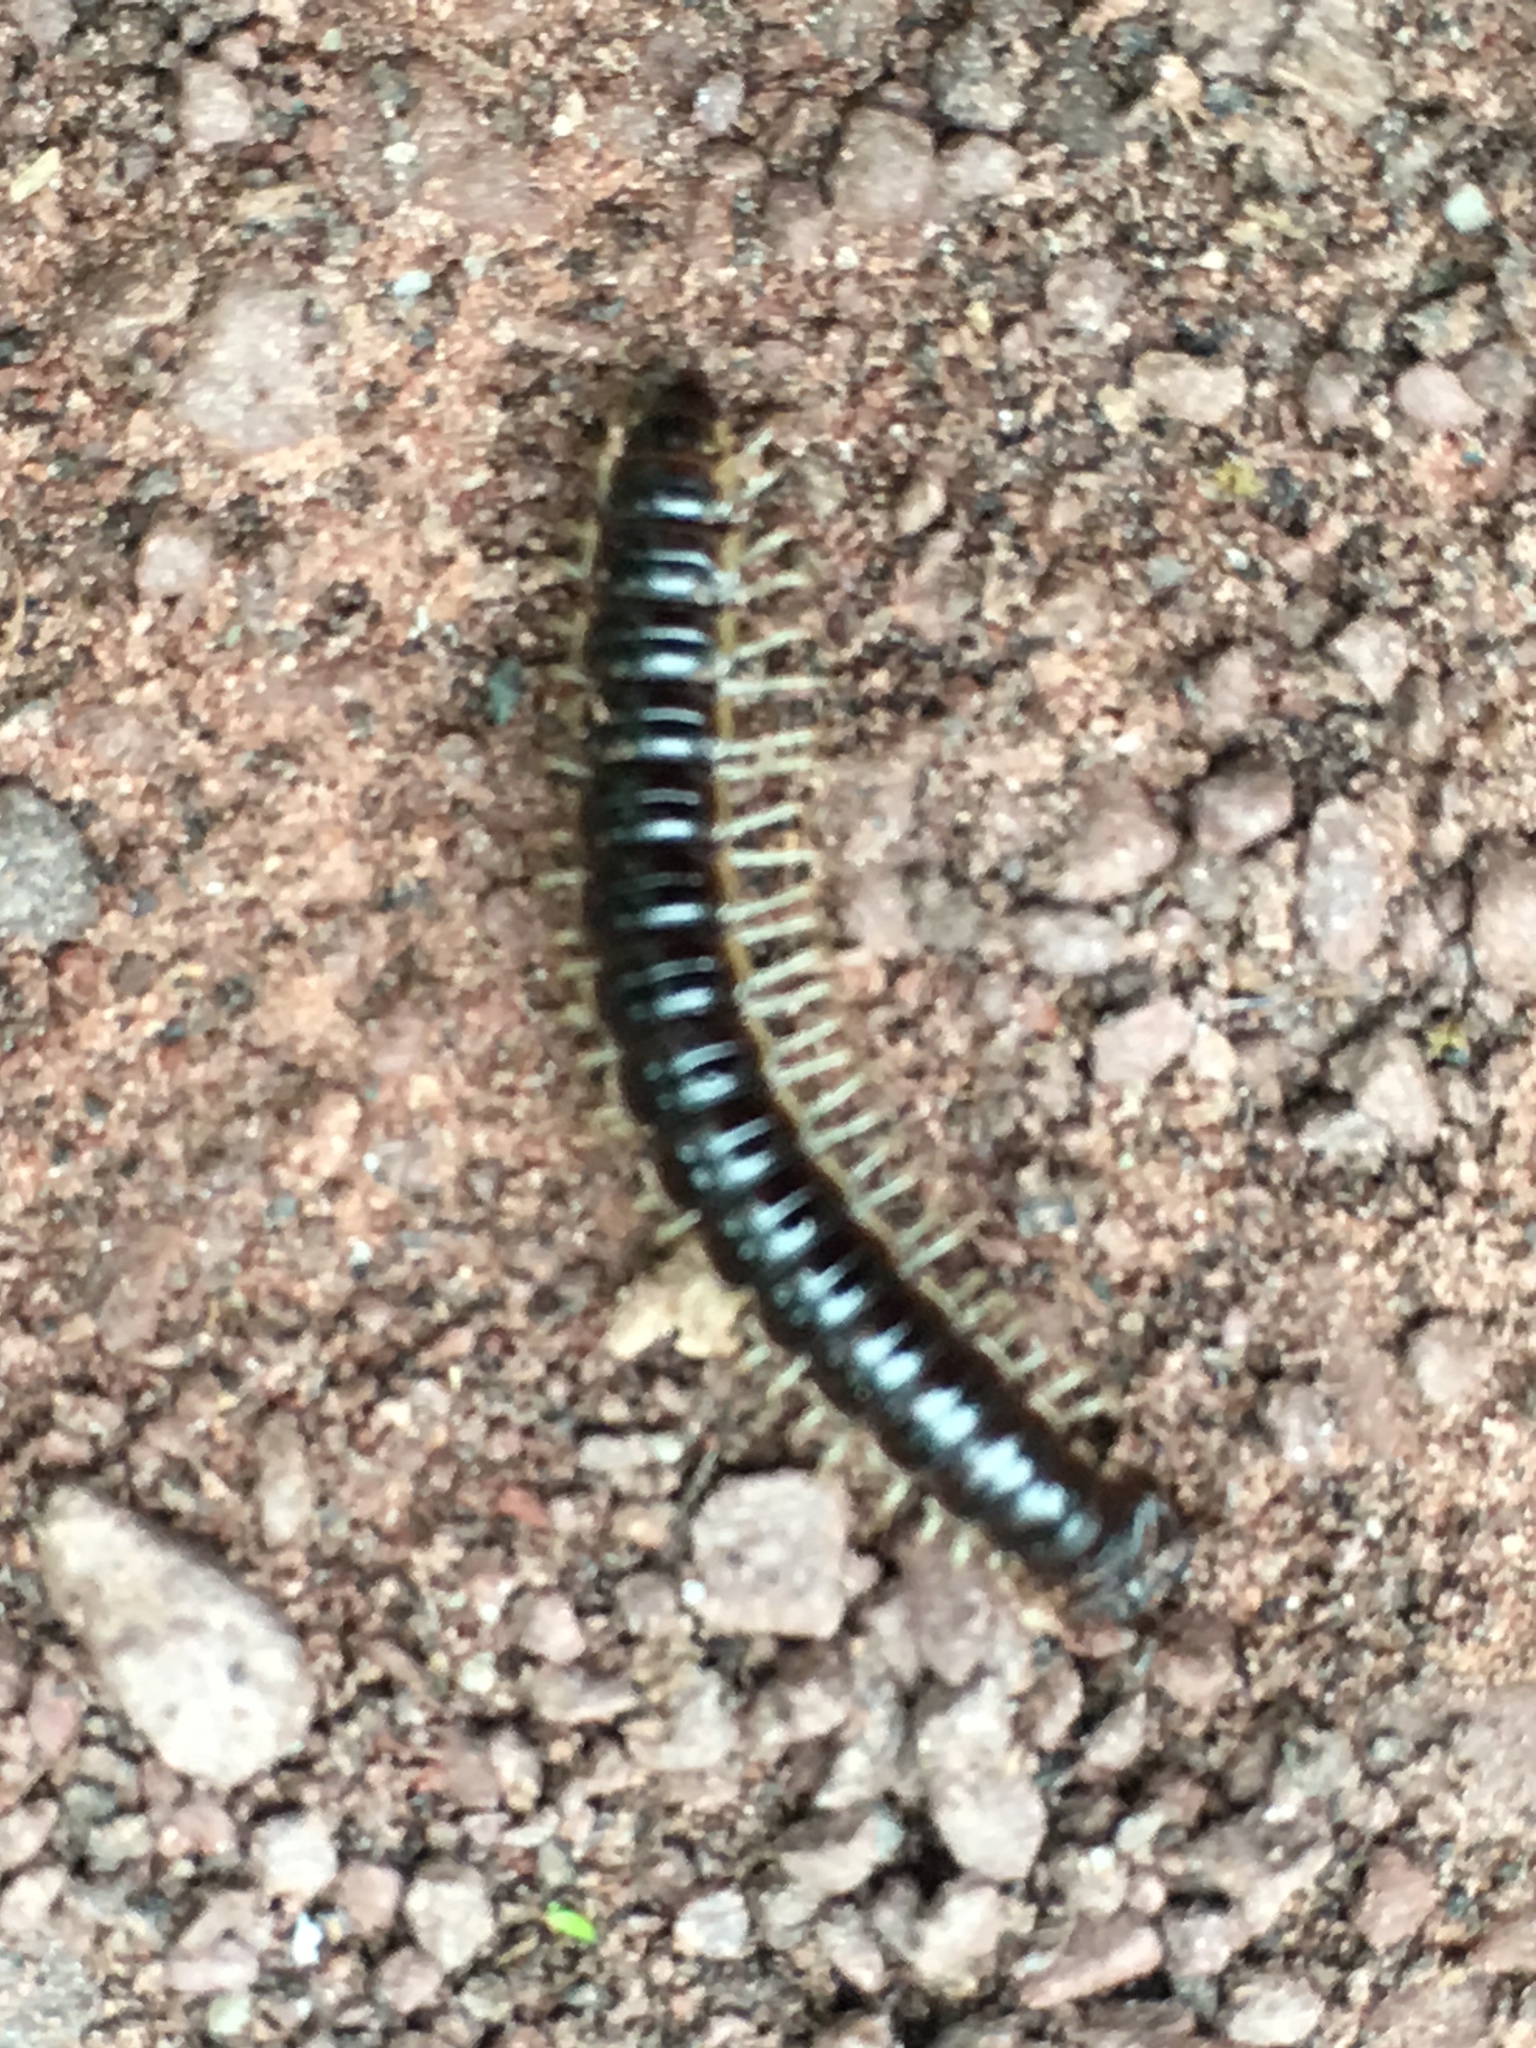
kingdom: Animalia
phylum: Arthropoda
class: Diplopoda
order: Polydesmida
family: Paradoxosomatidae
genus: Oxidus
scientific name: Oxidus gracilis
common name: Greenhouse millipede
